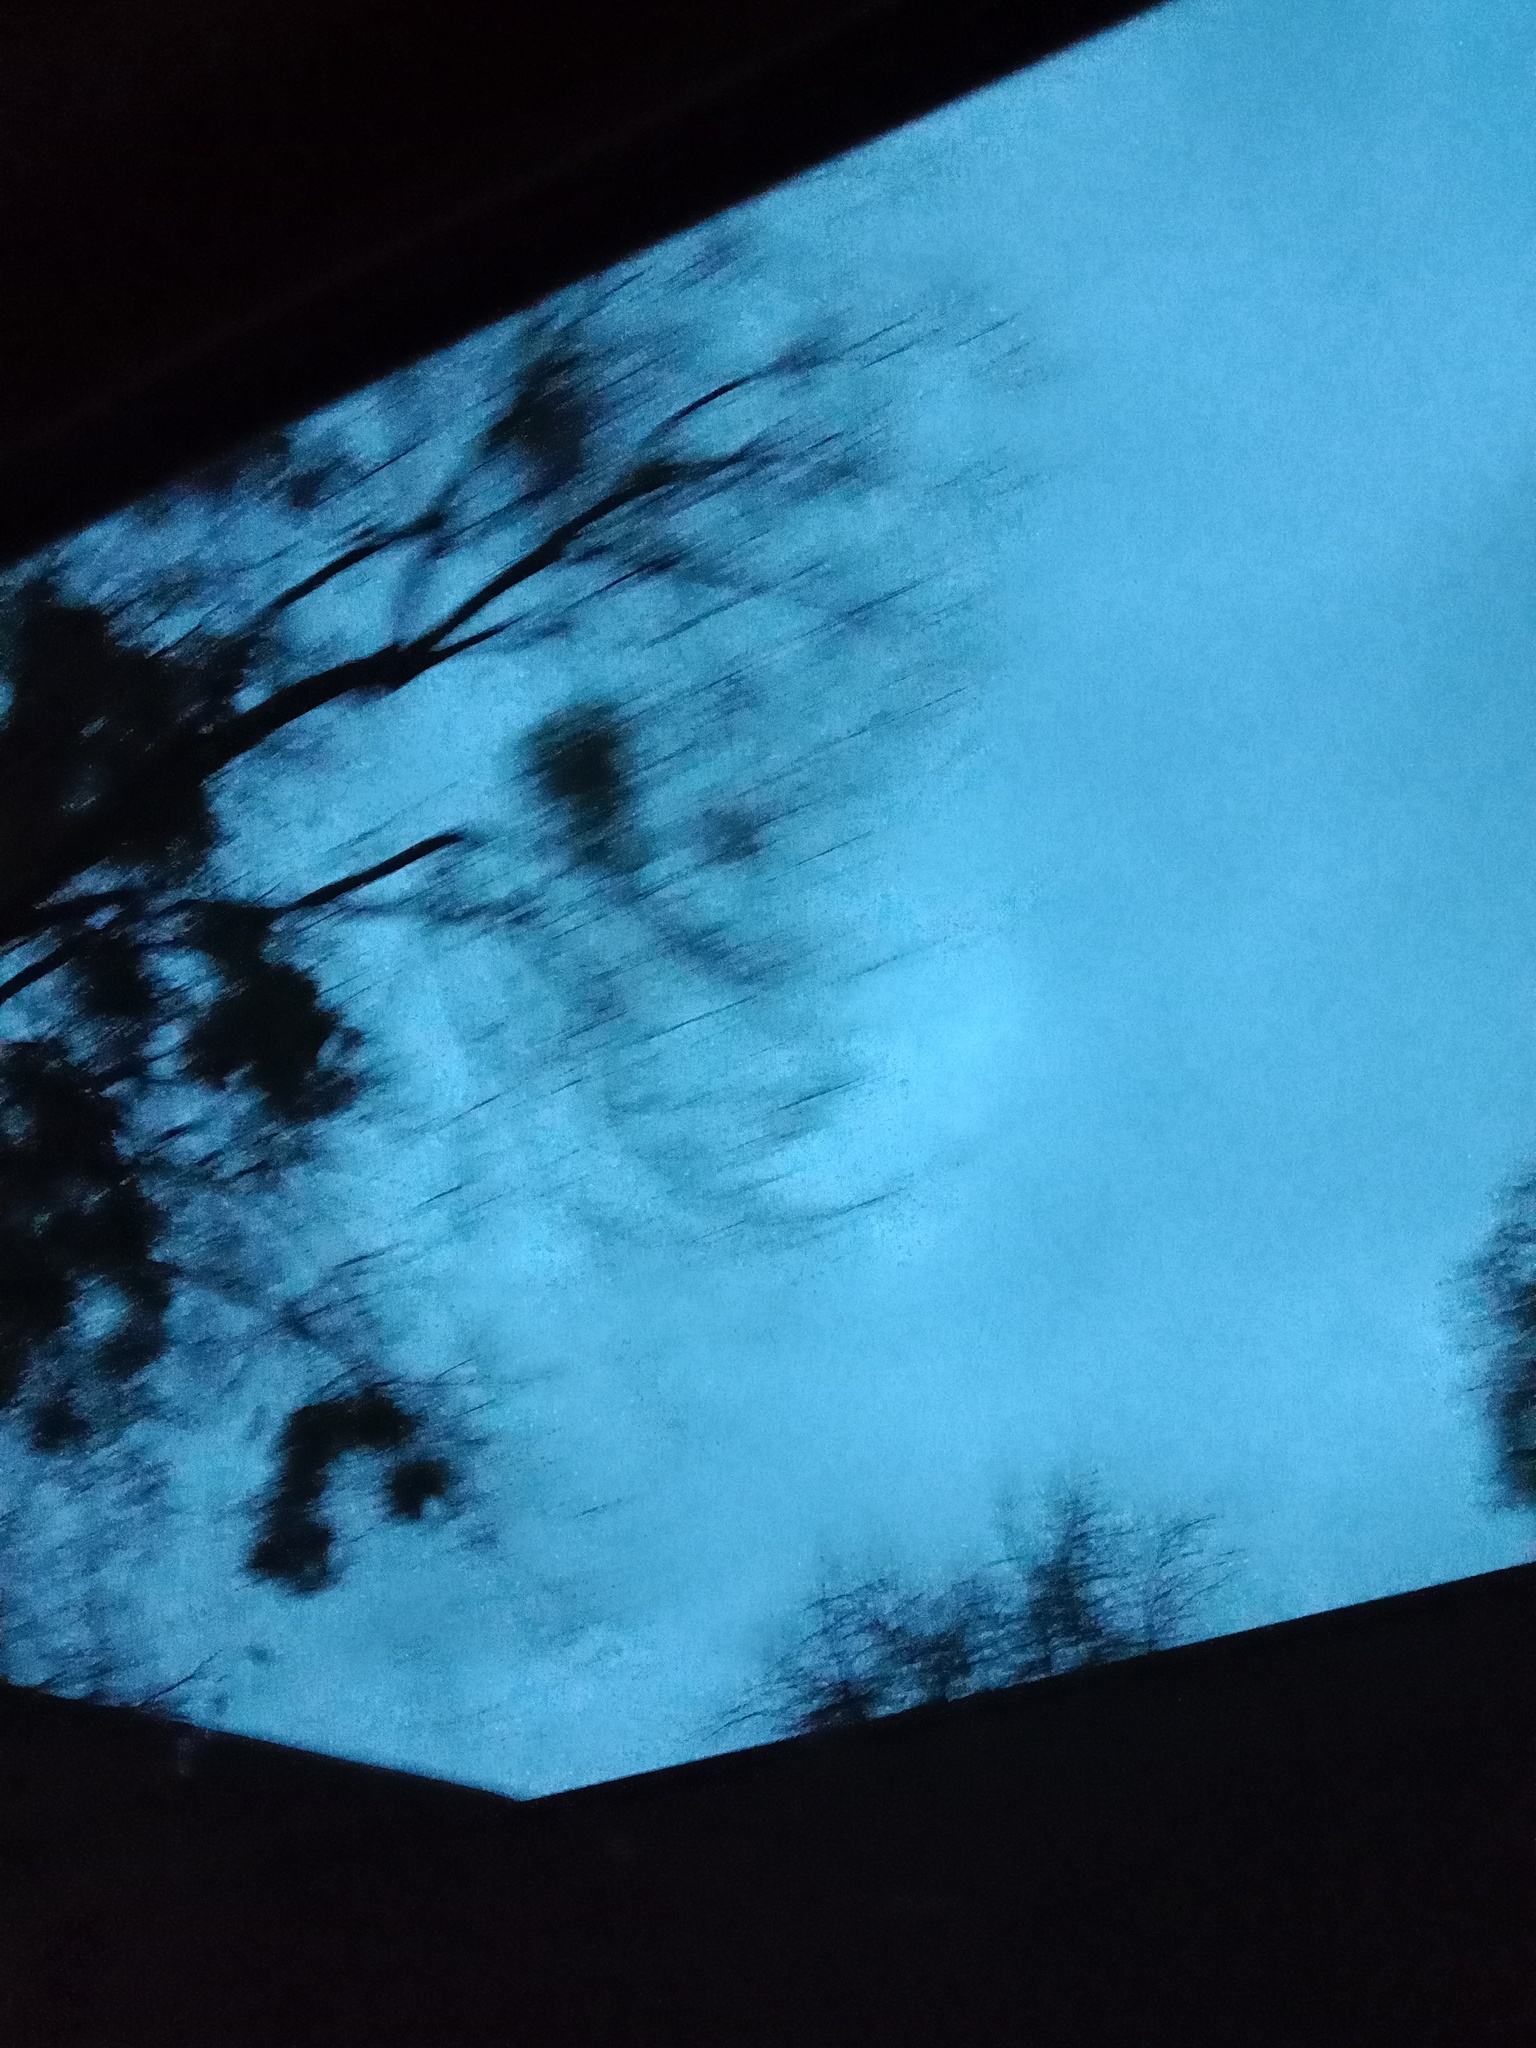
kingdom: Plantae
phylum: Tracheophyta
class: Magnoliopsida
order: Santalales
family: Viscaceae
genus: Viscum
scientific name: Viscum album
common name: Mistletoe
